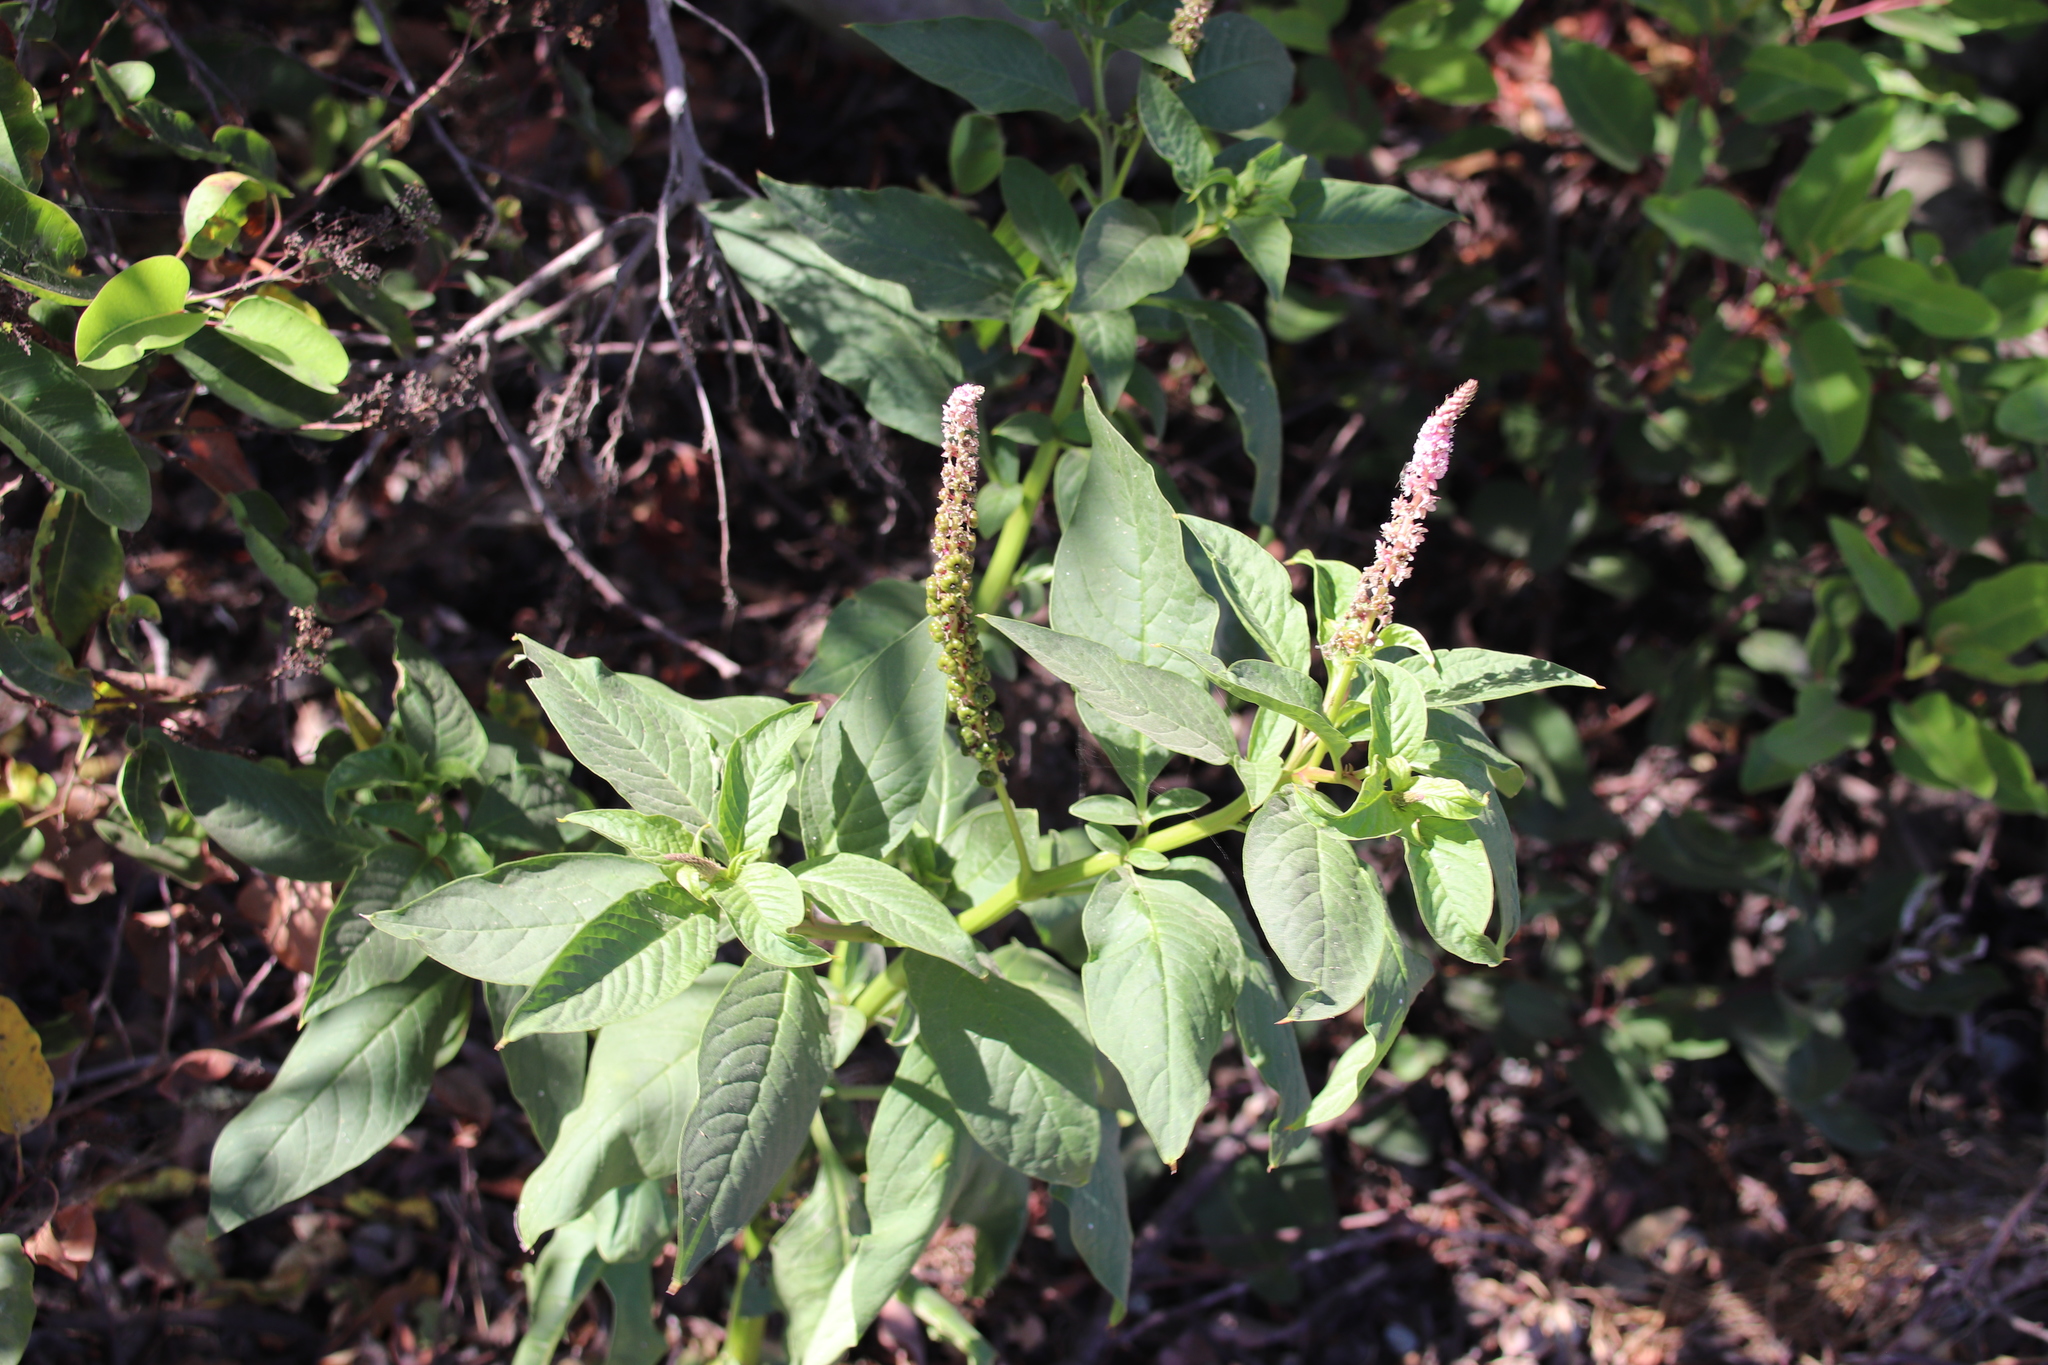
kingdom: Plantae
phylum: Tracheophyta
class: Magnoliopsida
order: Caryophyllales
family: Phytolaccaceae
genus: Phytolacca
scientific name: Phytolacca icosandra
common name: Button pokeweed
